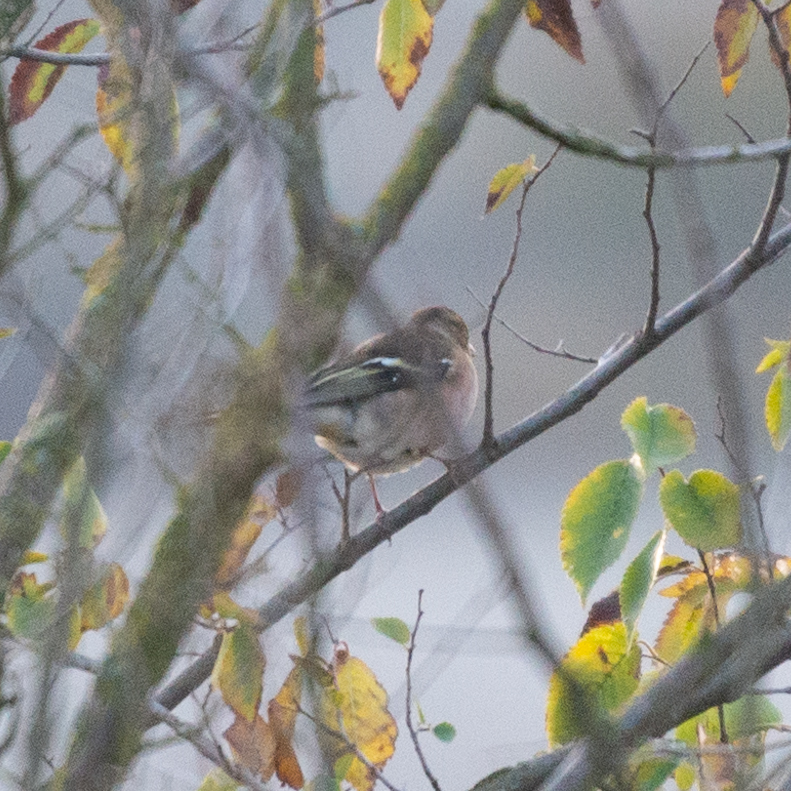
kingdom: Animalia
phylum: Chordata
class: Aves
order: Passeriformes
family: Fringillidae
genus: Fringilla
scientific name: Fringilla coelebs
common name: Common chaffinch
